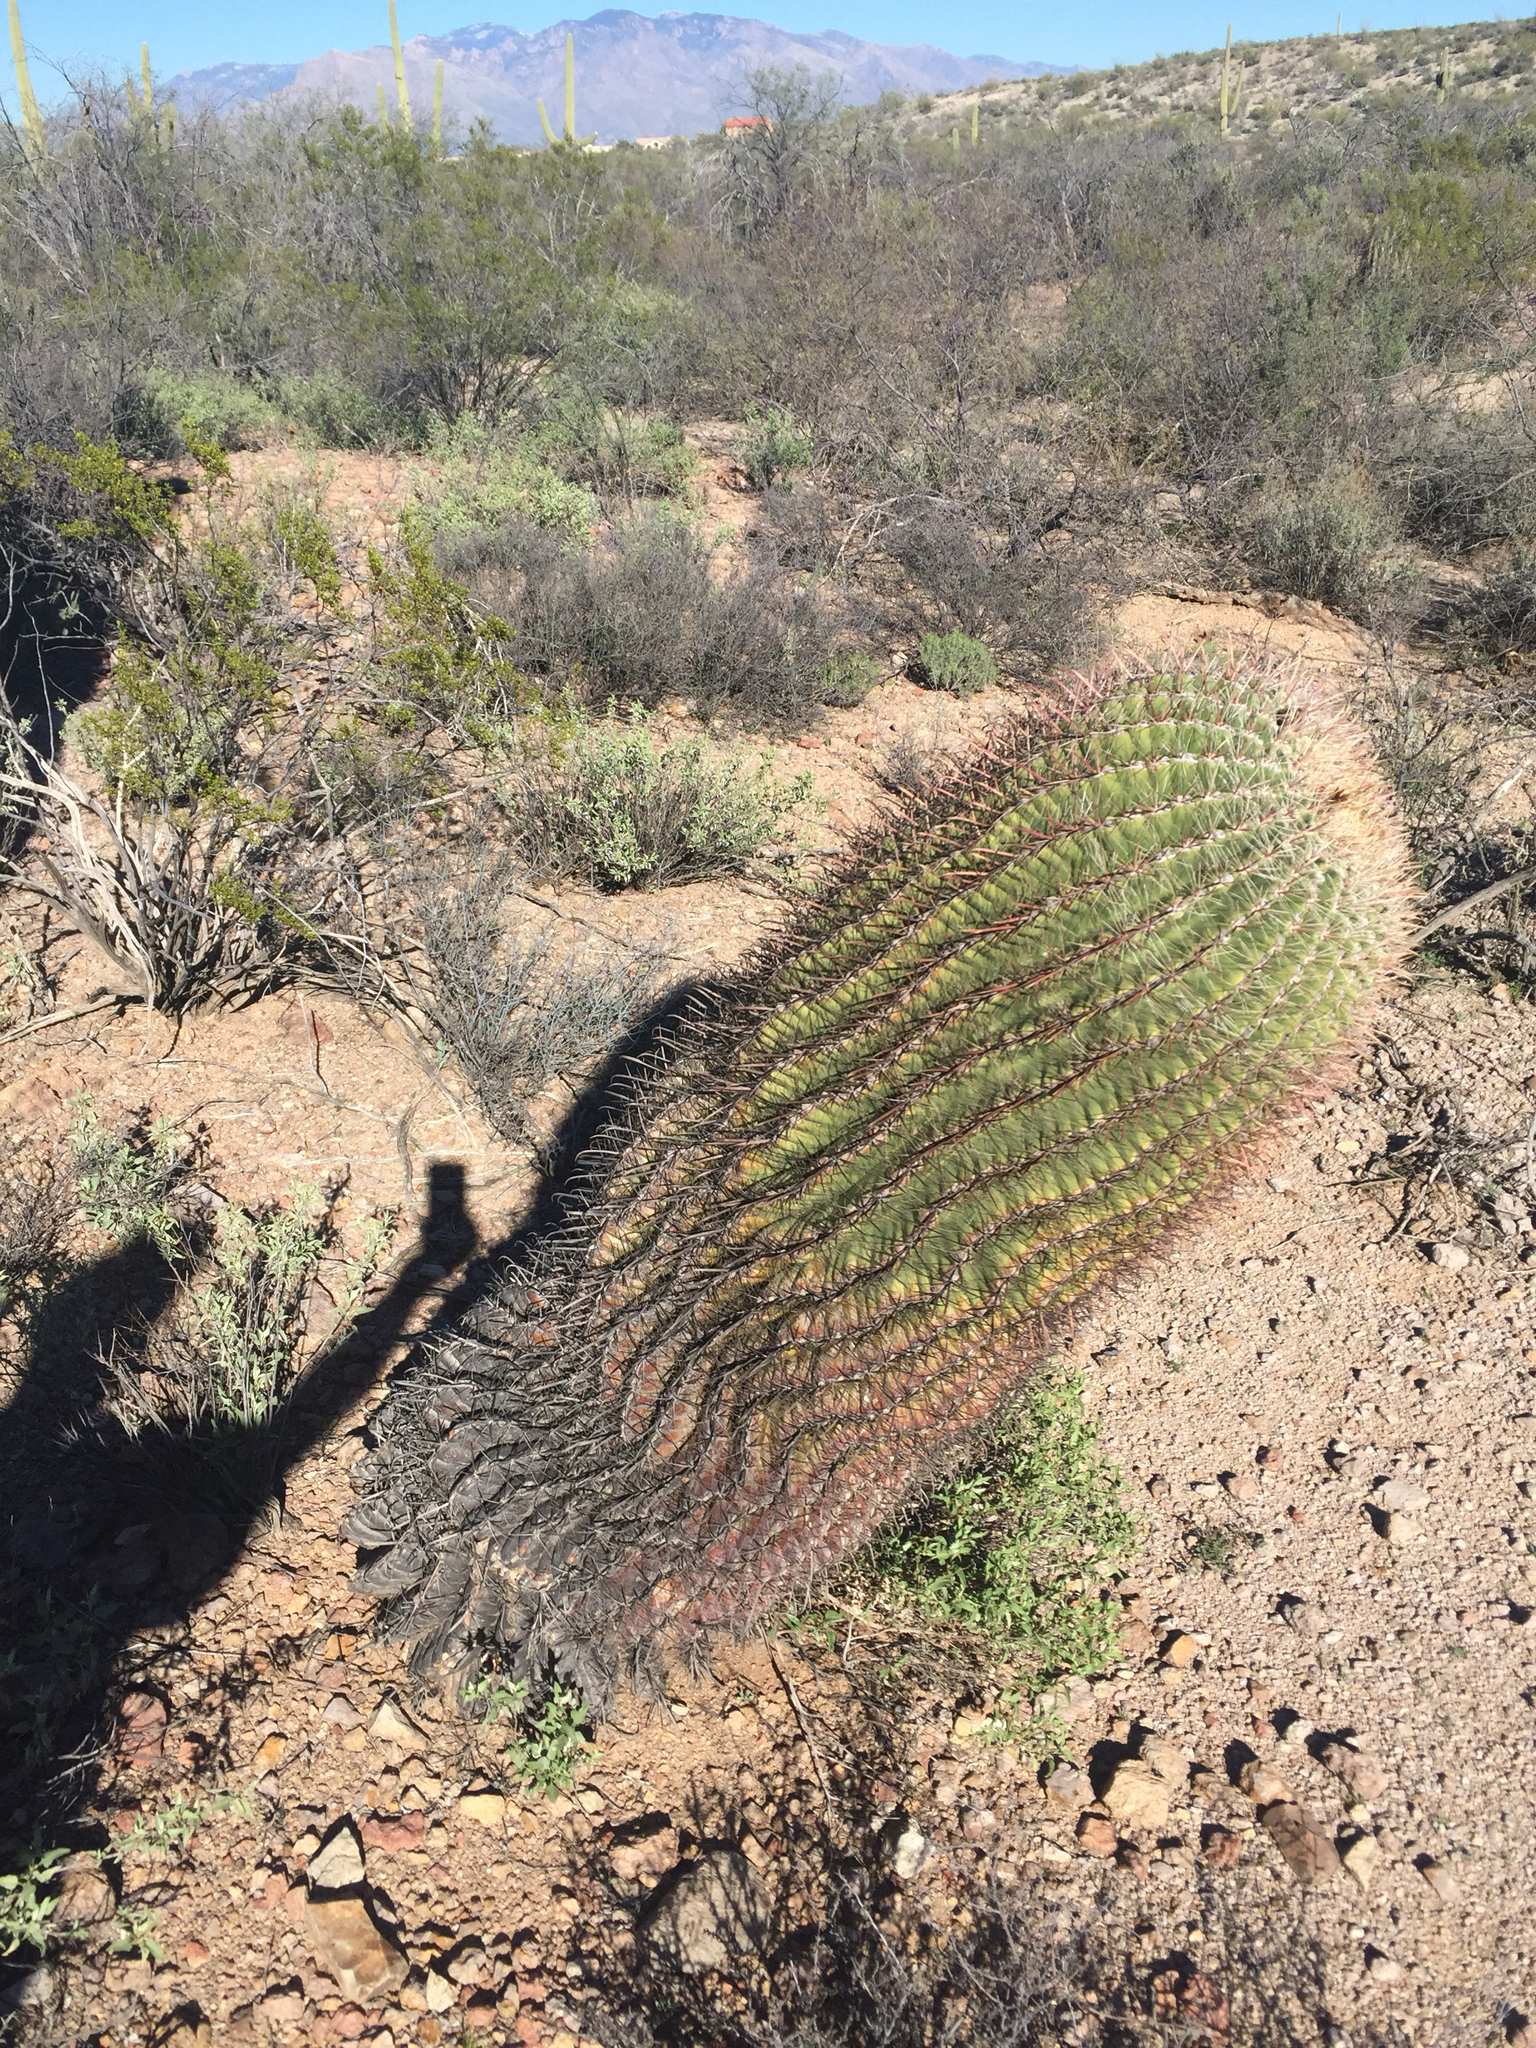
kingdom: Plantae
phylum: Tracheophyta
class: Magnoliopsida
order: Caryophyllales
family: Cactaceae
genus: Ferocactus
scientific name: Ferocactus cylindraceus
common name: California barrel cactus
